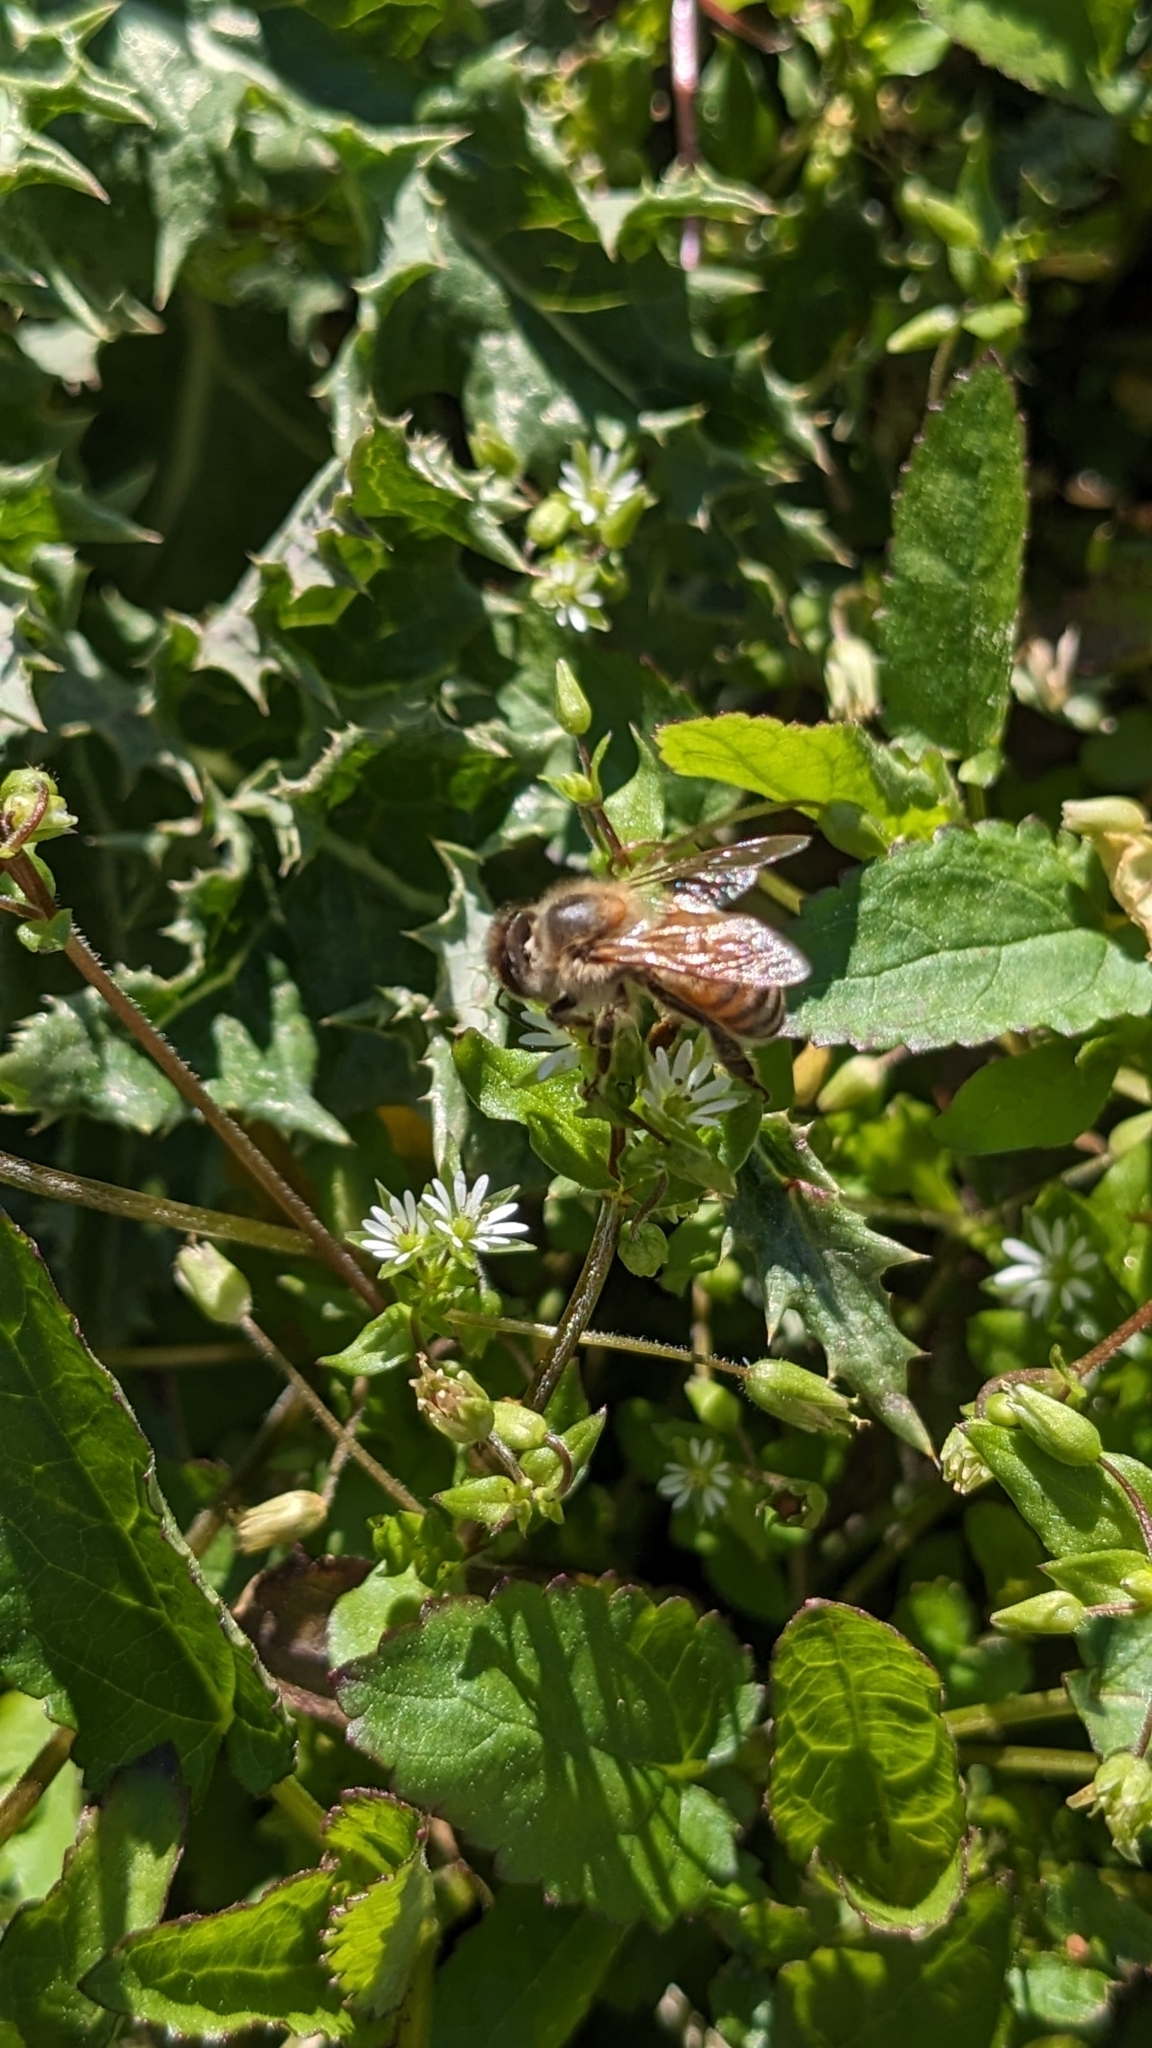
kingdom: Animalia
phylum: Arthropoda
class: Insecta
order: Hymenoptera
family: Apidae
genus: Apis
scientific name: Apis mellifera
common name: Honey bee
